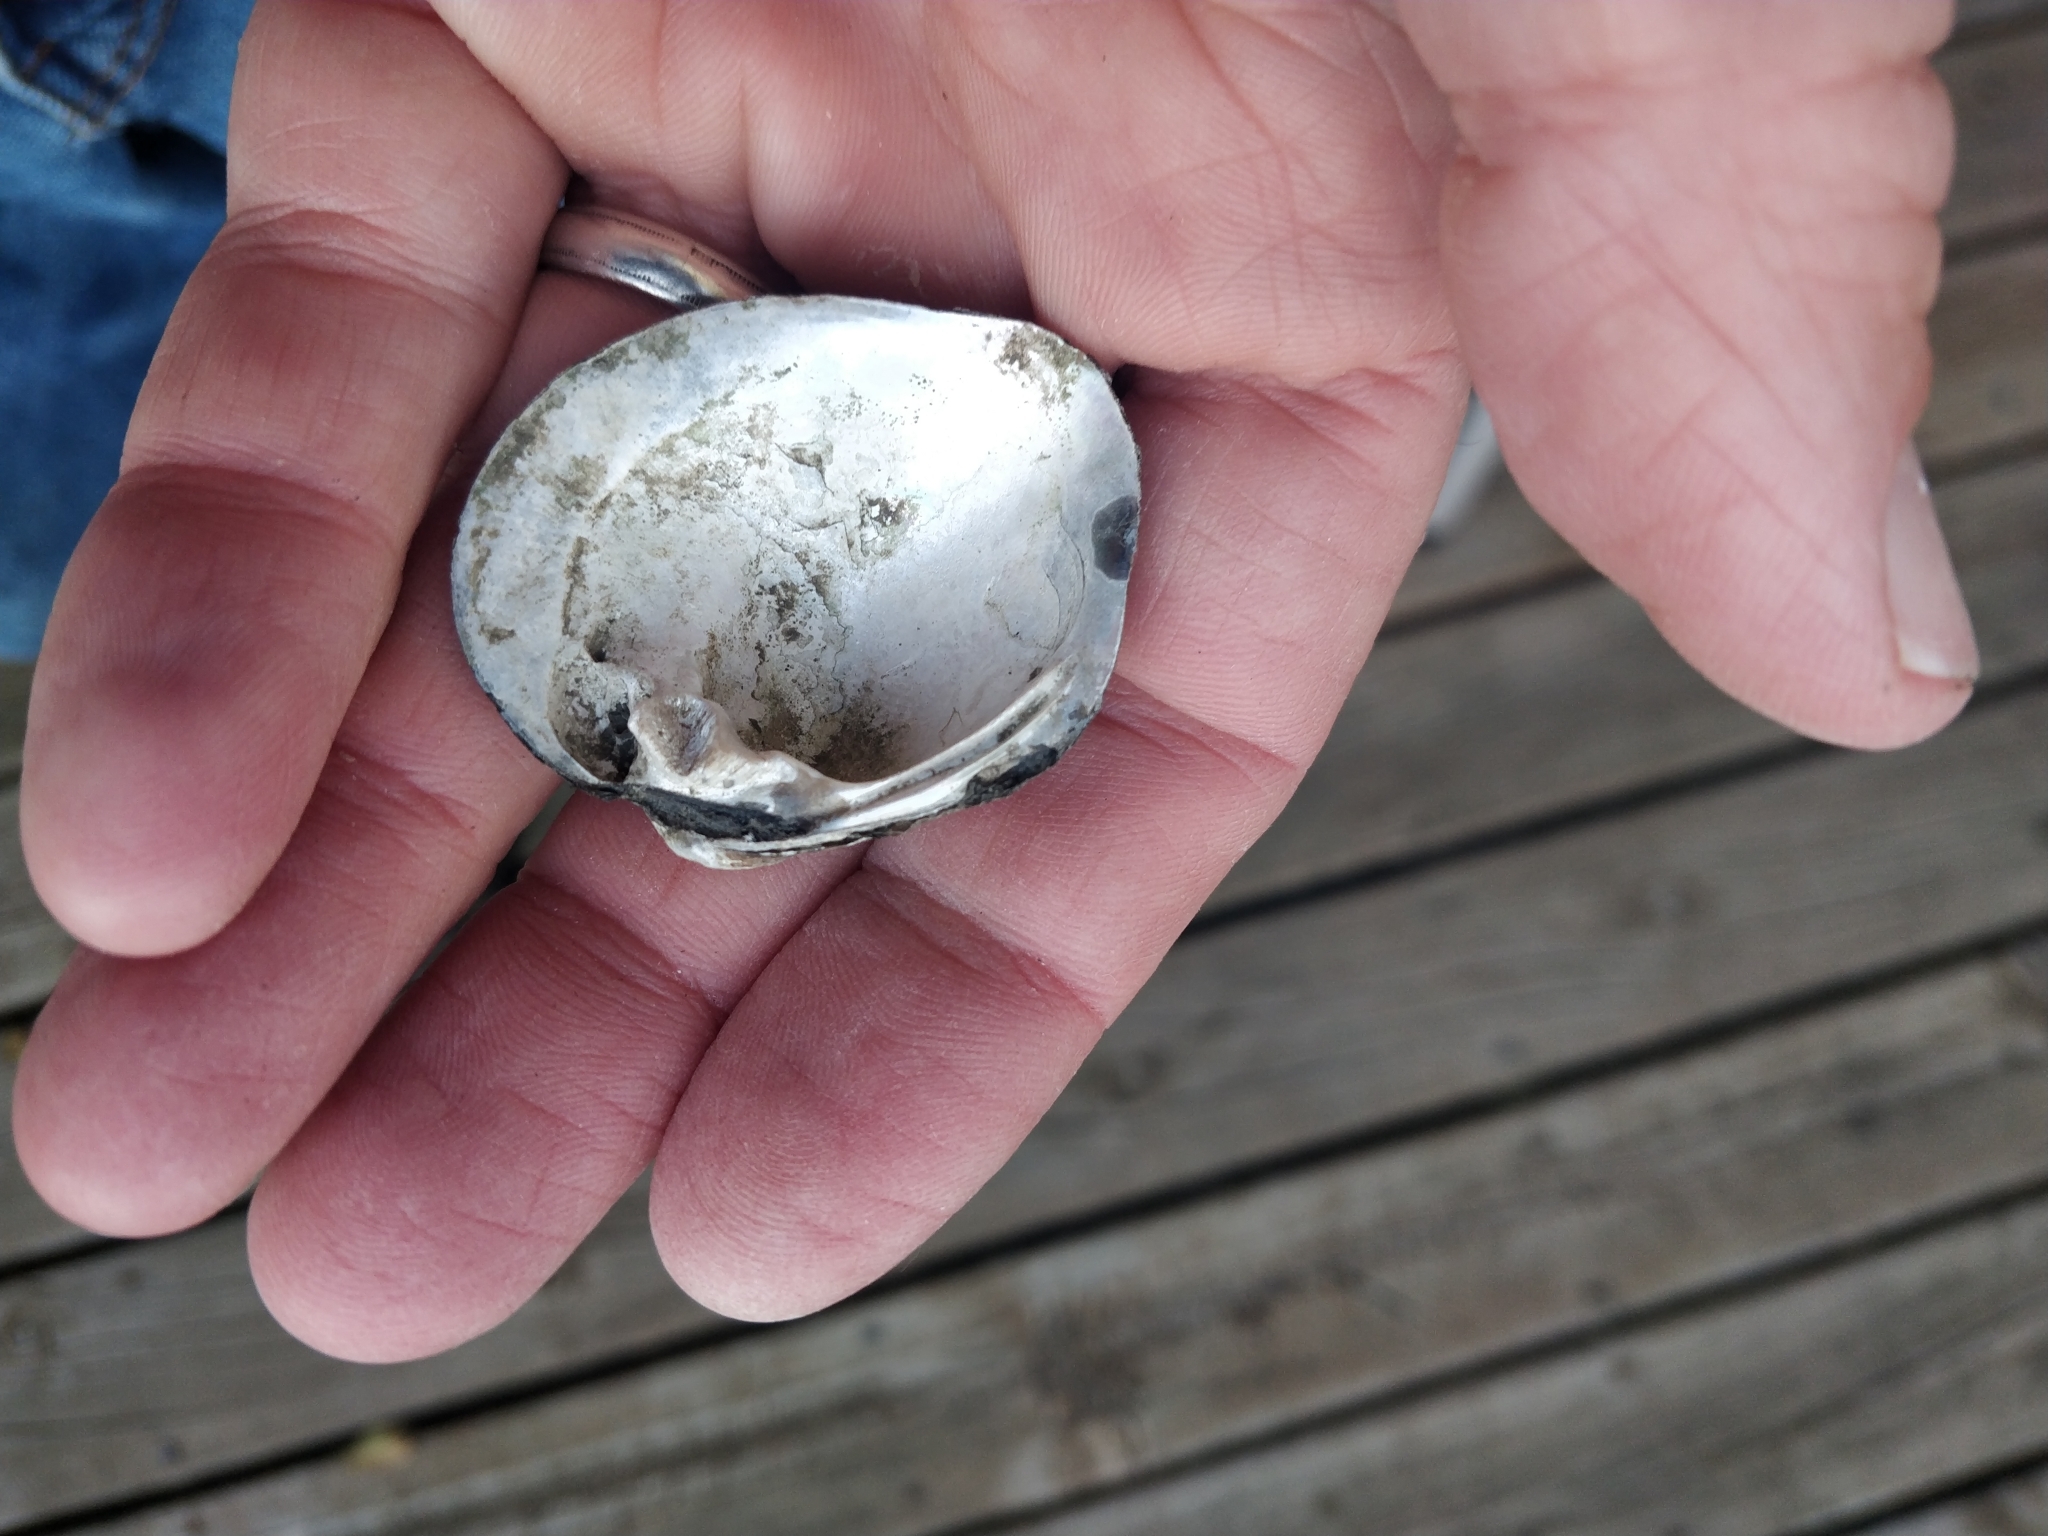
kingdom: Animalia
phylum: Mollusca
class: Bivalvia
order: Unionida
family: Unionidae
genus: Cyclonaias
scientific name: Cyclonaias pustulosa
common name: Pimpleback
